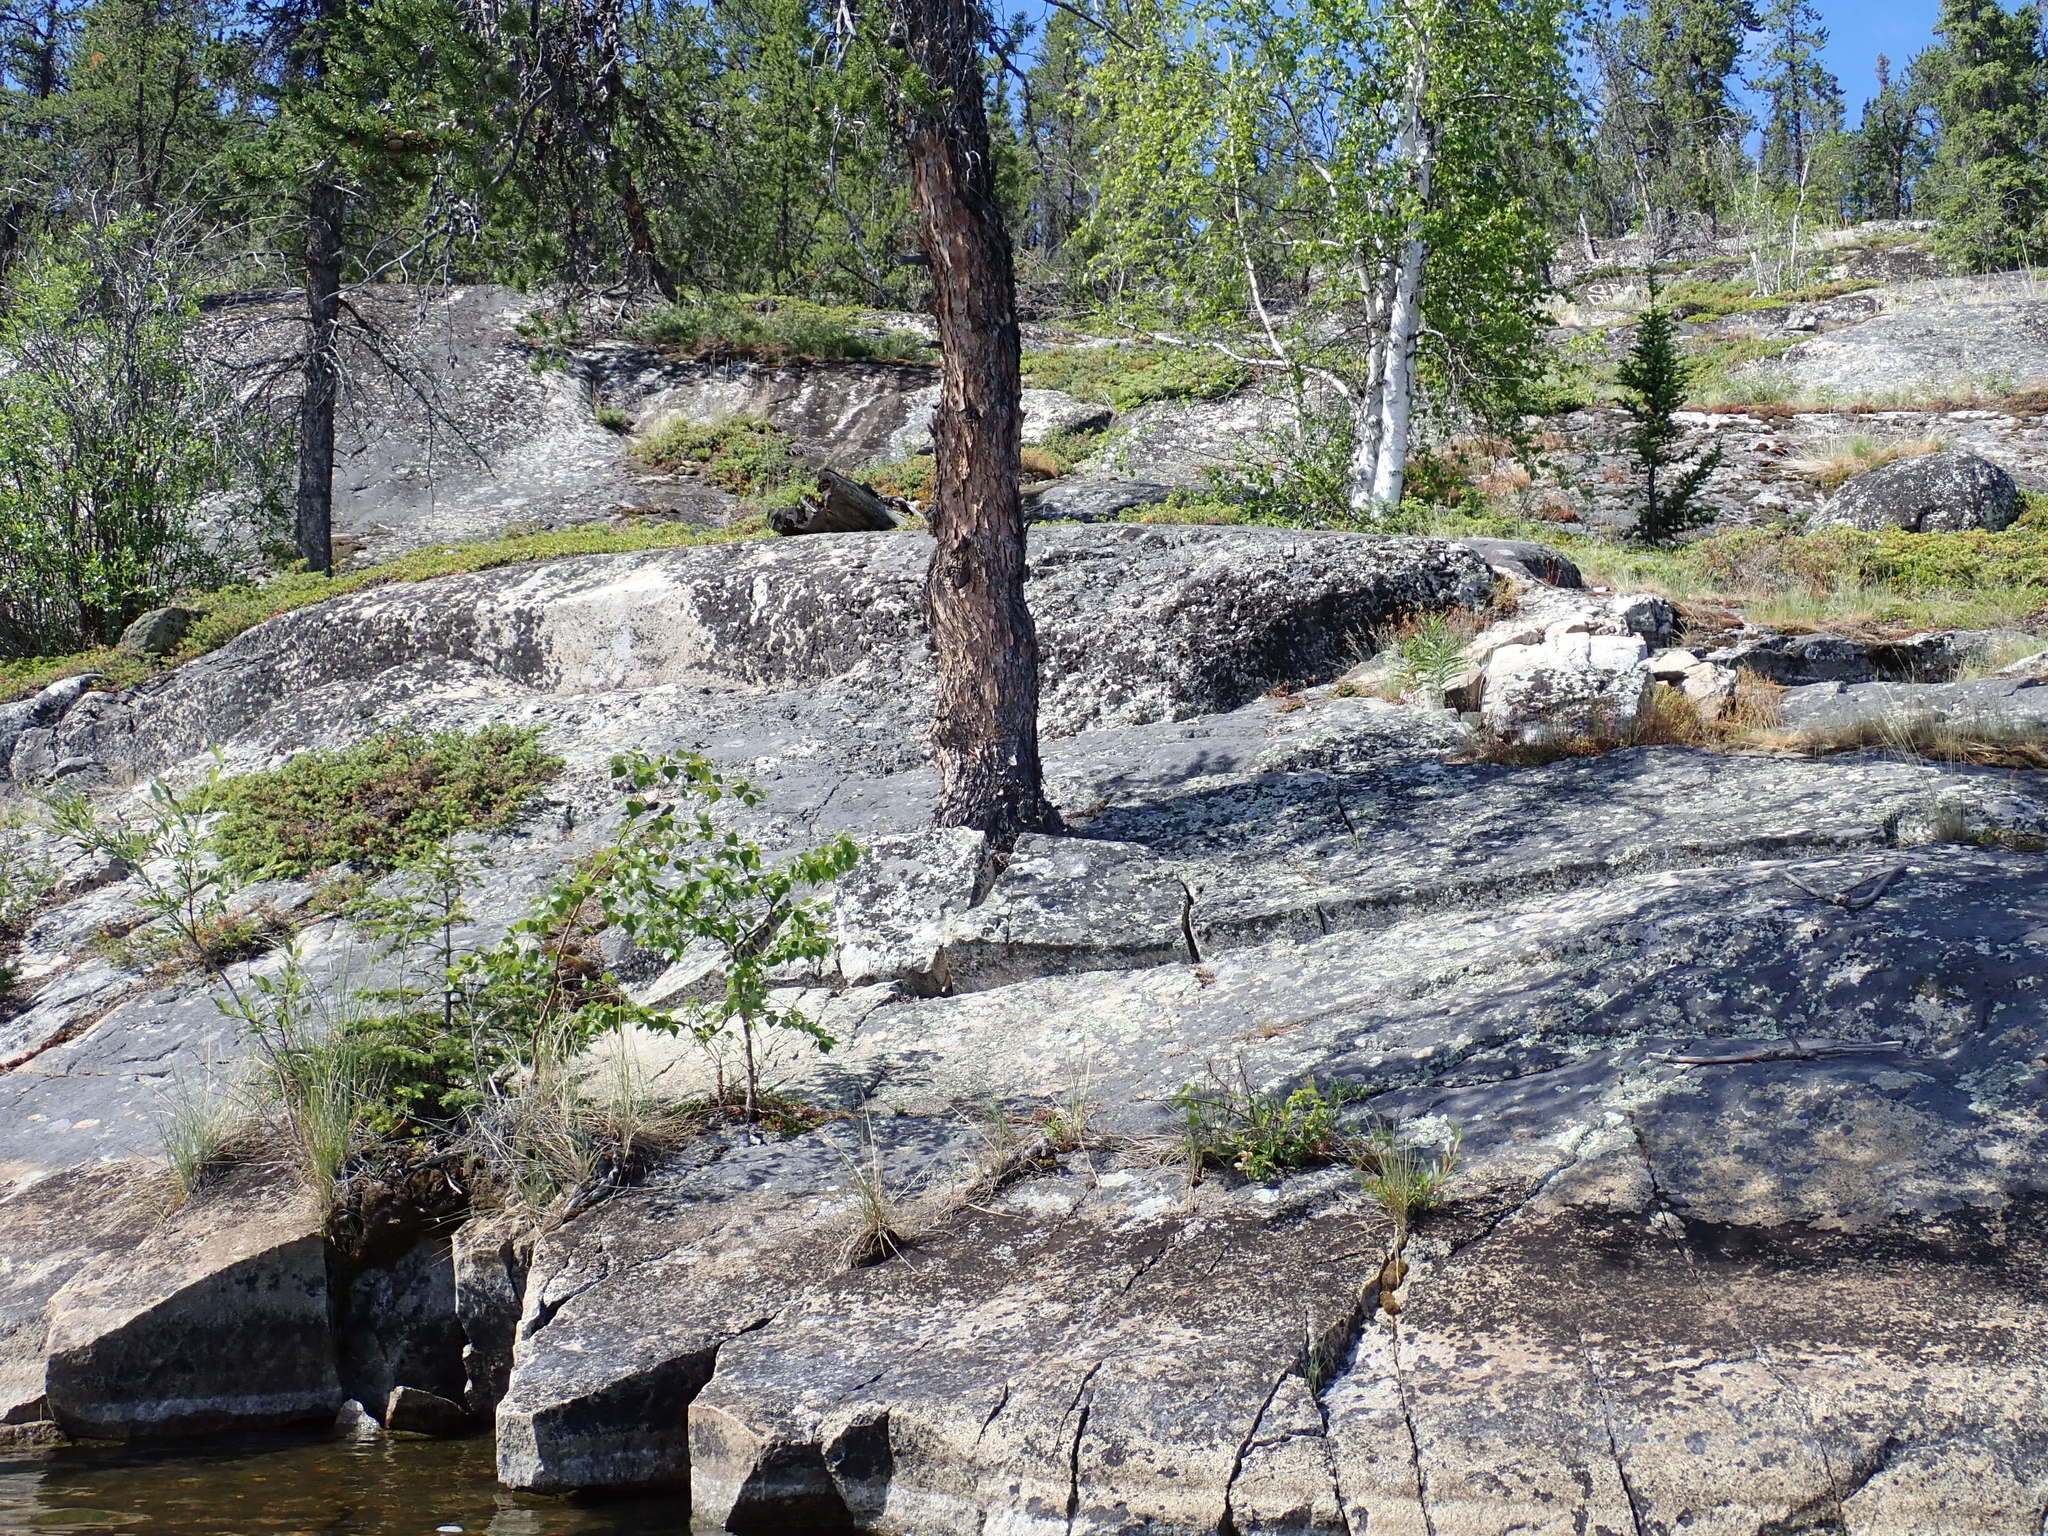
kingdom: Plantae
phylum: Tracheophyta
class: Pinopsida
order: Pinales
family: Pinaceae
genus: Pinus
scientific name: Pinus banksiana
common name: Jack pine
